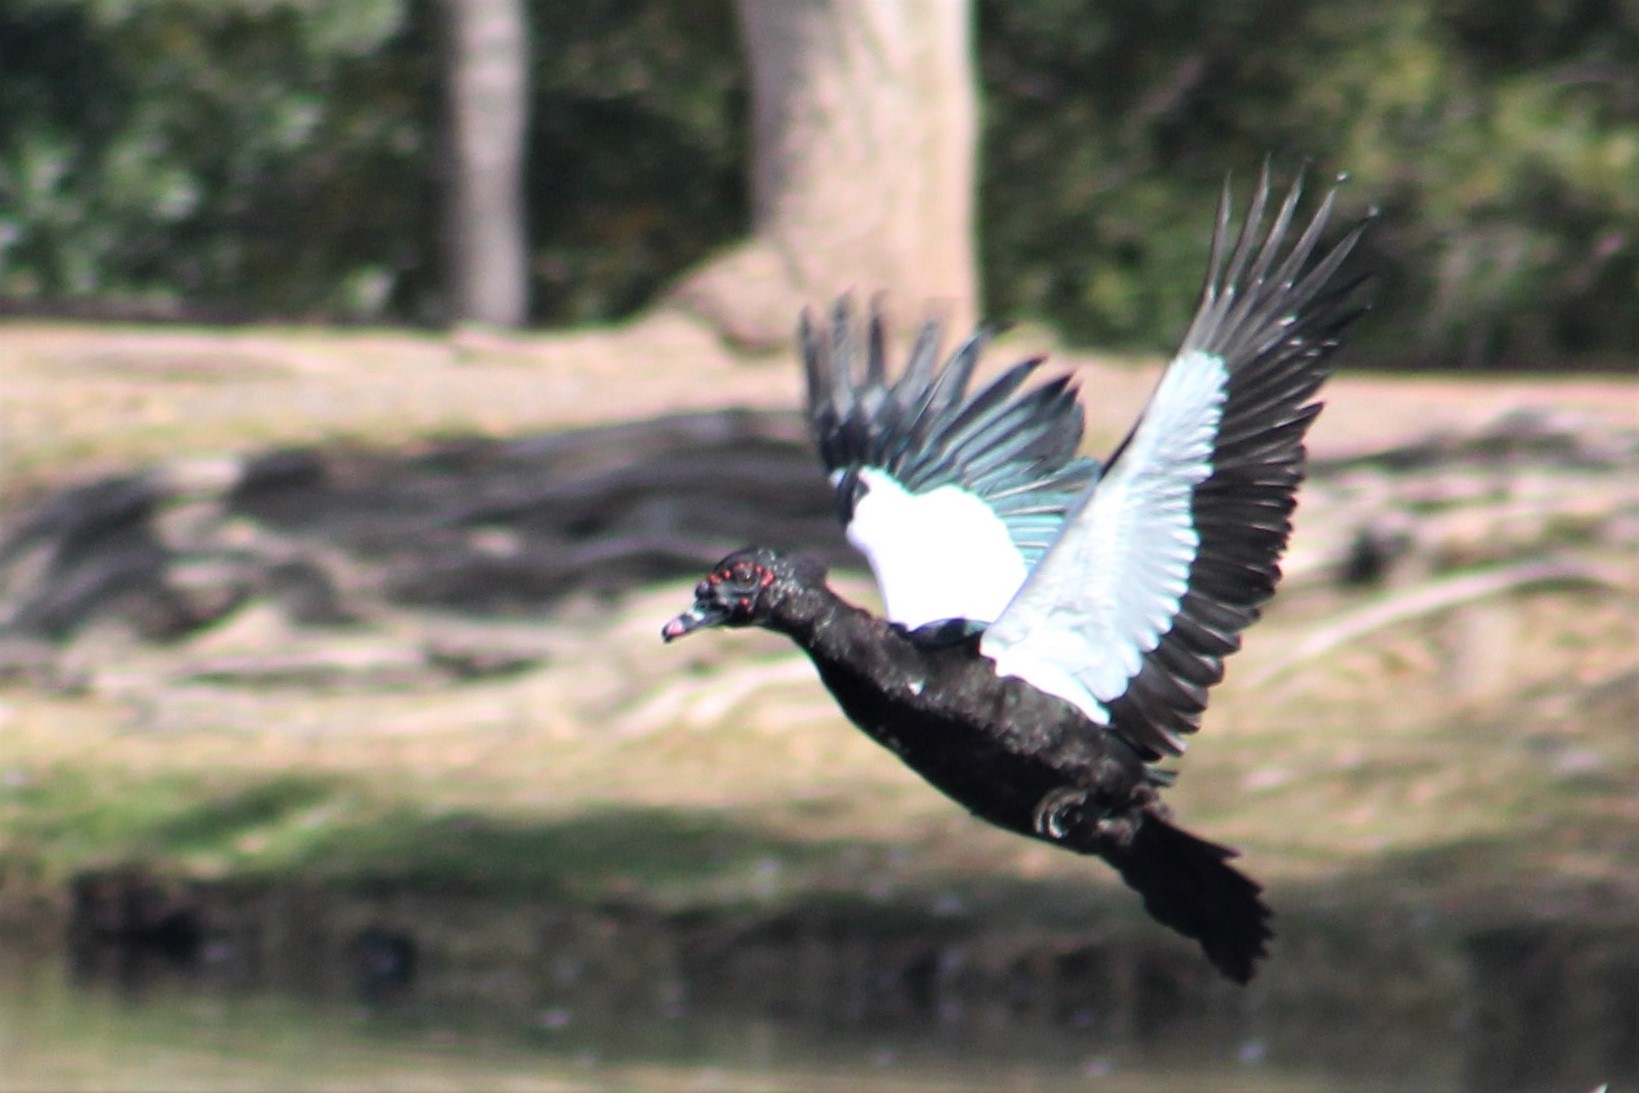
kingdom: Animalia
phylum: Chordata
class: Aves
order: Anseriformes
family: Anatidae
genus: Cairina
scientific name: Cairina moschata
